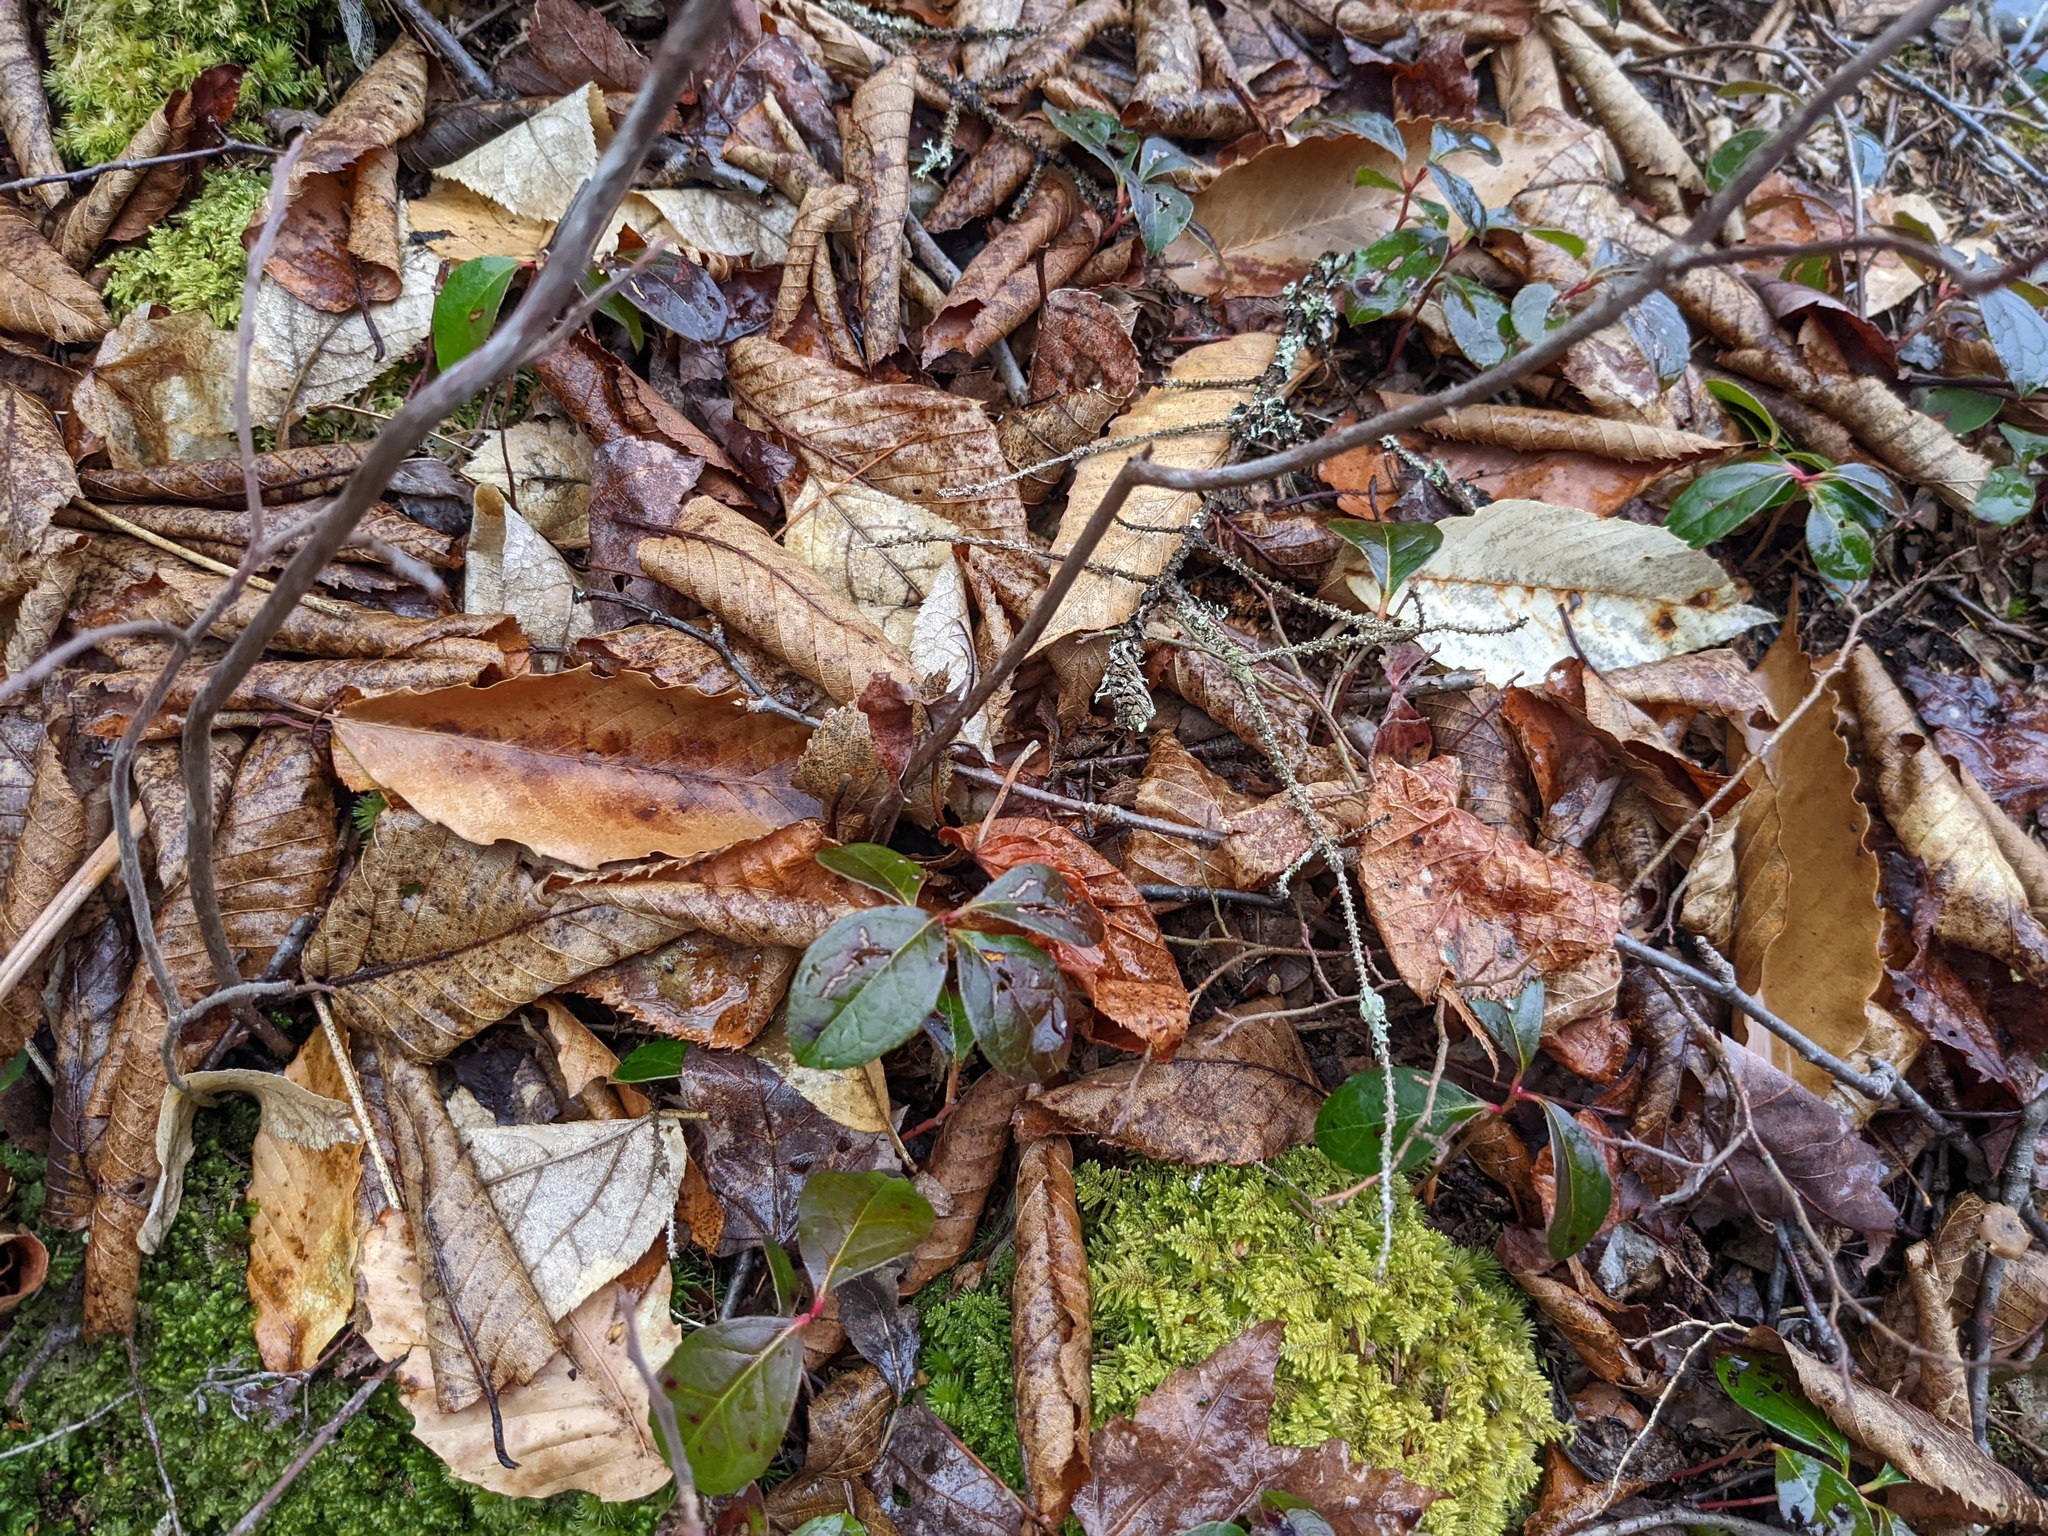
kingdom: Plantae
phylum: Tracheophyta
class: Magnoliopsida
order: Ericales
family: Ericaceae
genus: Gaultheria
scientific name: Gaultheria procumbens
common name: Checkerberry
